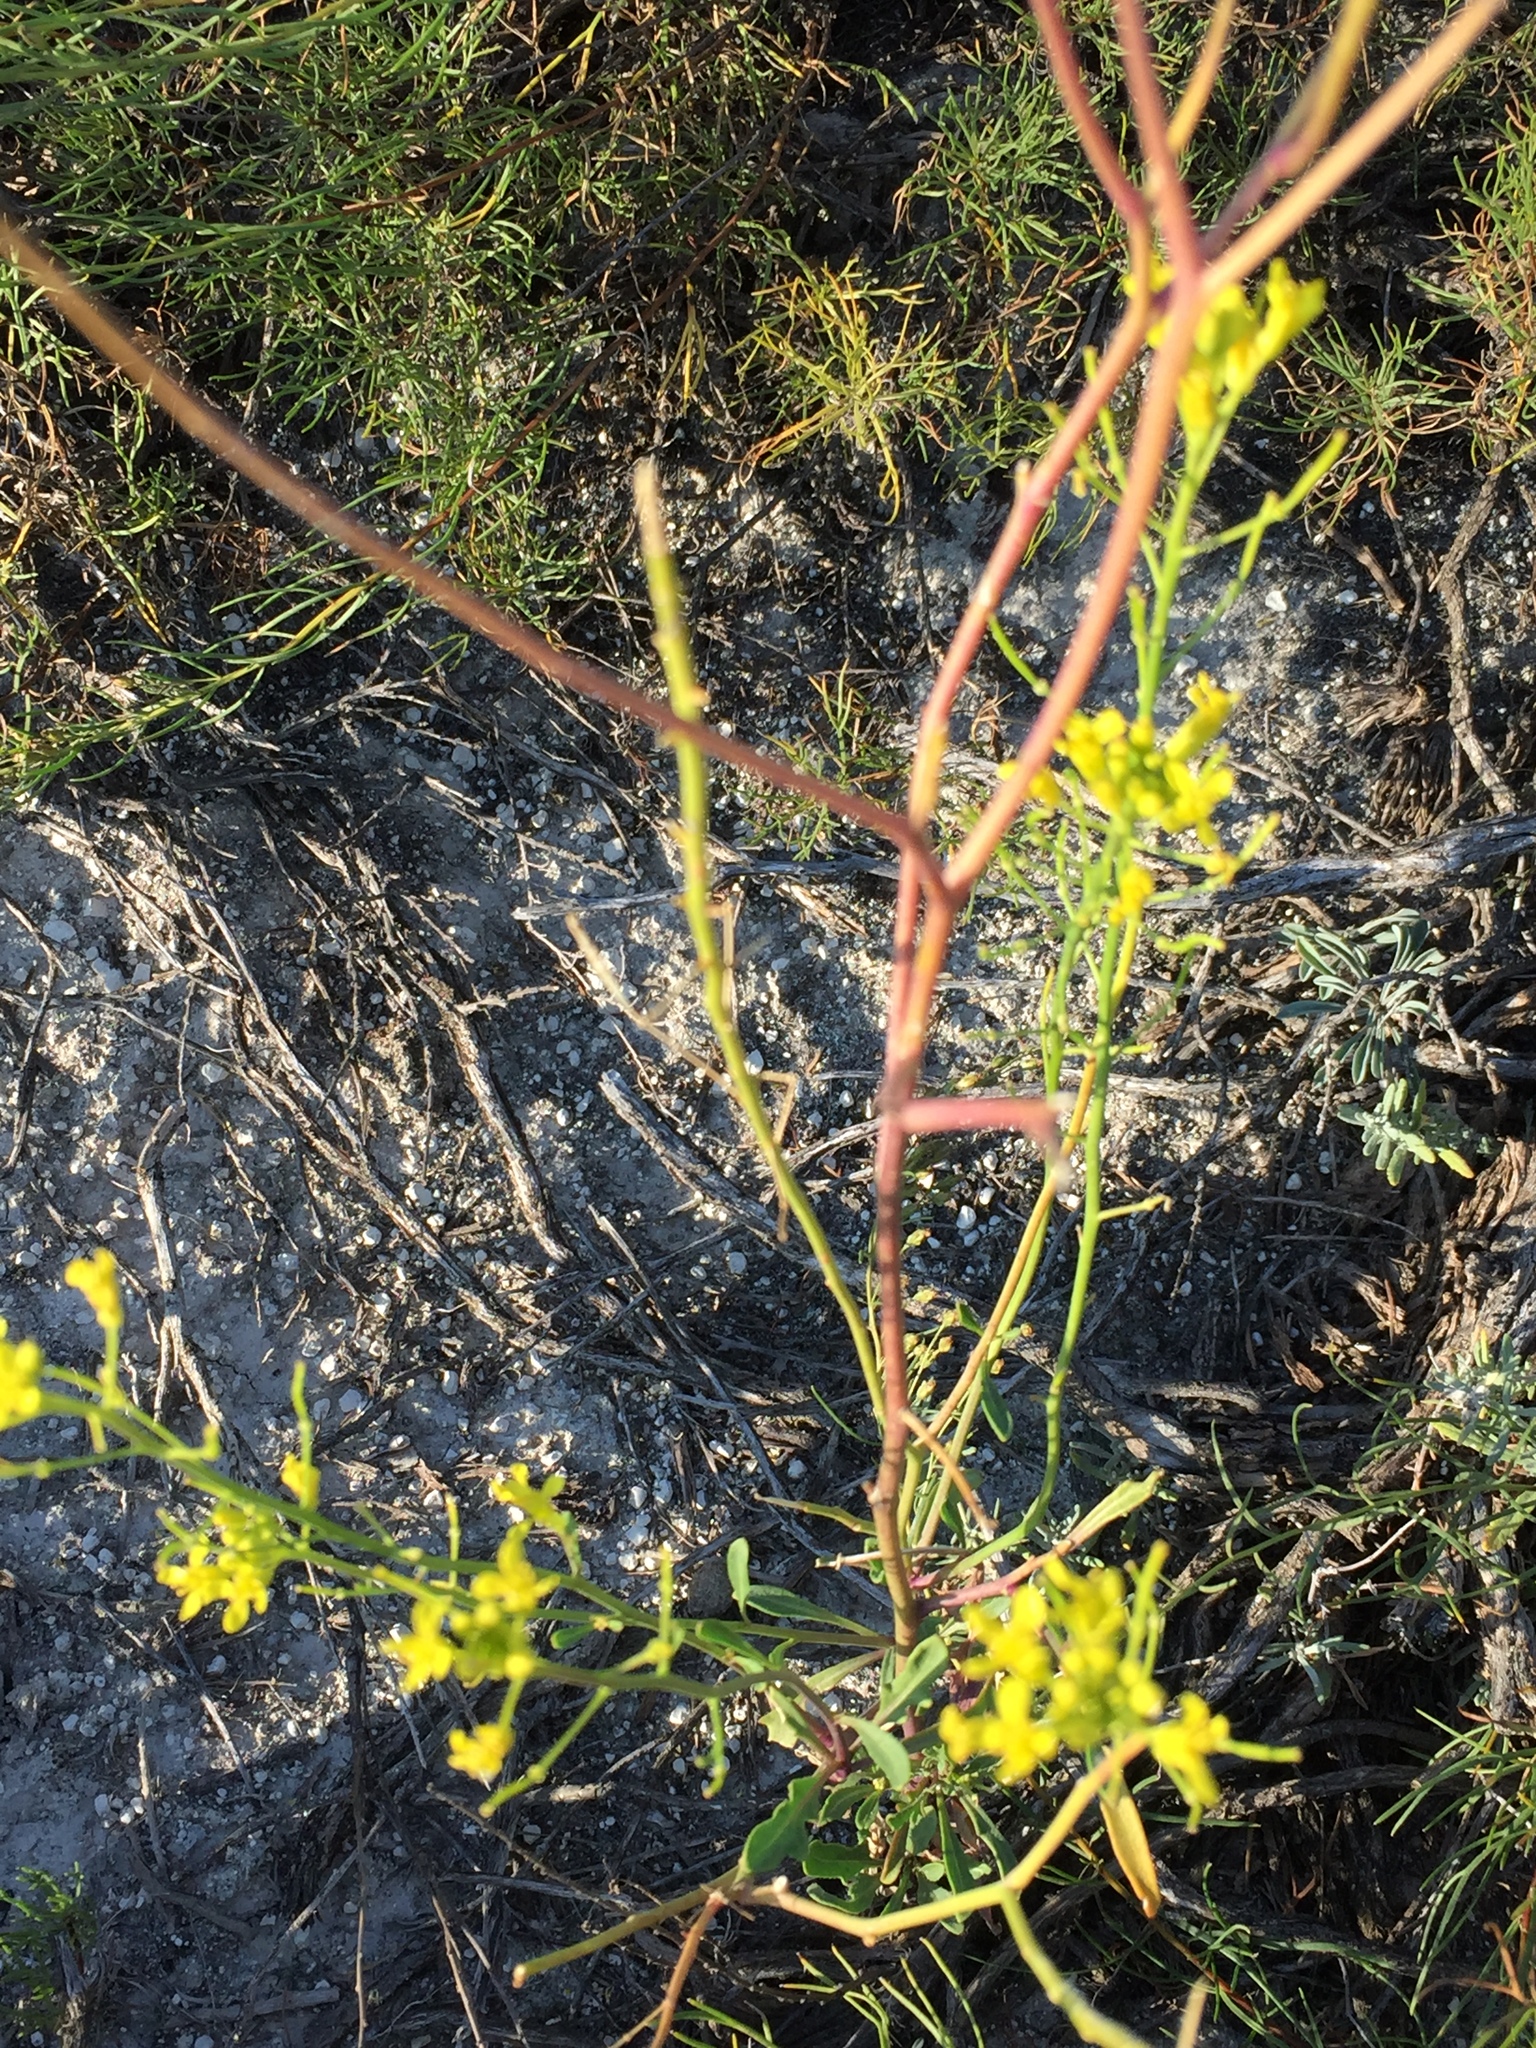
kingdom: Plantae
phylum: Tracheophyta
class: Magnoliopsida
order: Brassicales
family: Brassicaceae
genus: Sisymbrium
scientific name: Sisymbrium loeselii
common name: False london-rocket
